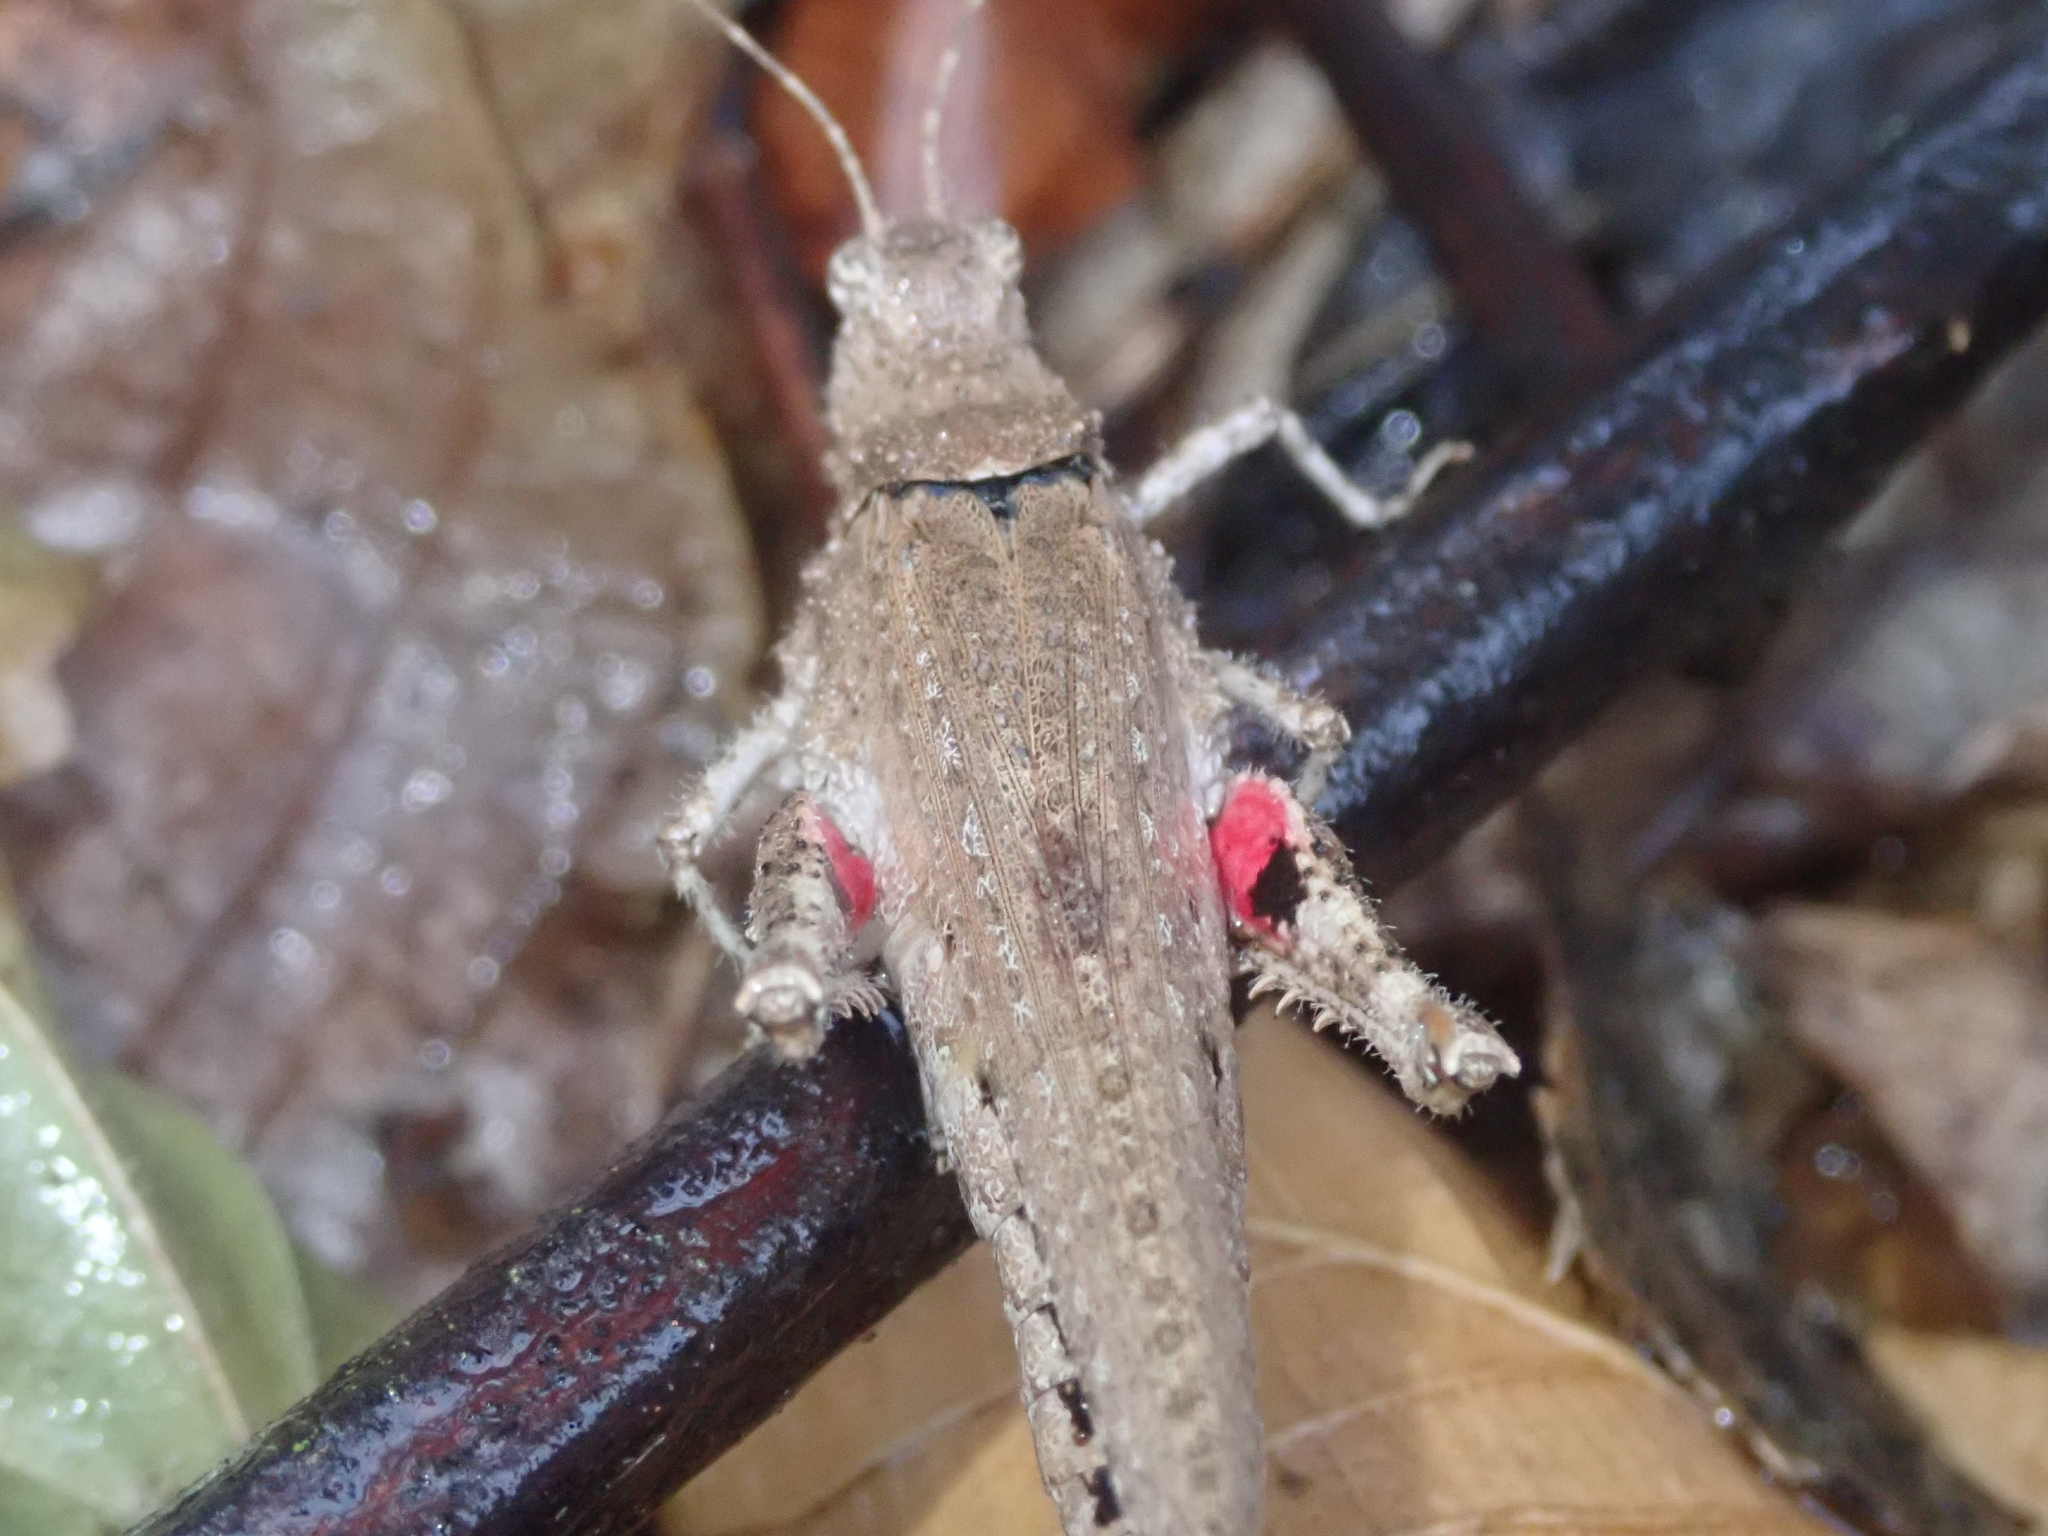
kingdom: Animalia
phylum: Arthropoda
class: Insecta
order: Orthoptera
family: Ommexechidae
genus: Ommexecha
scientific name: Ommexecha macropterum
